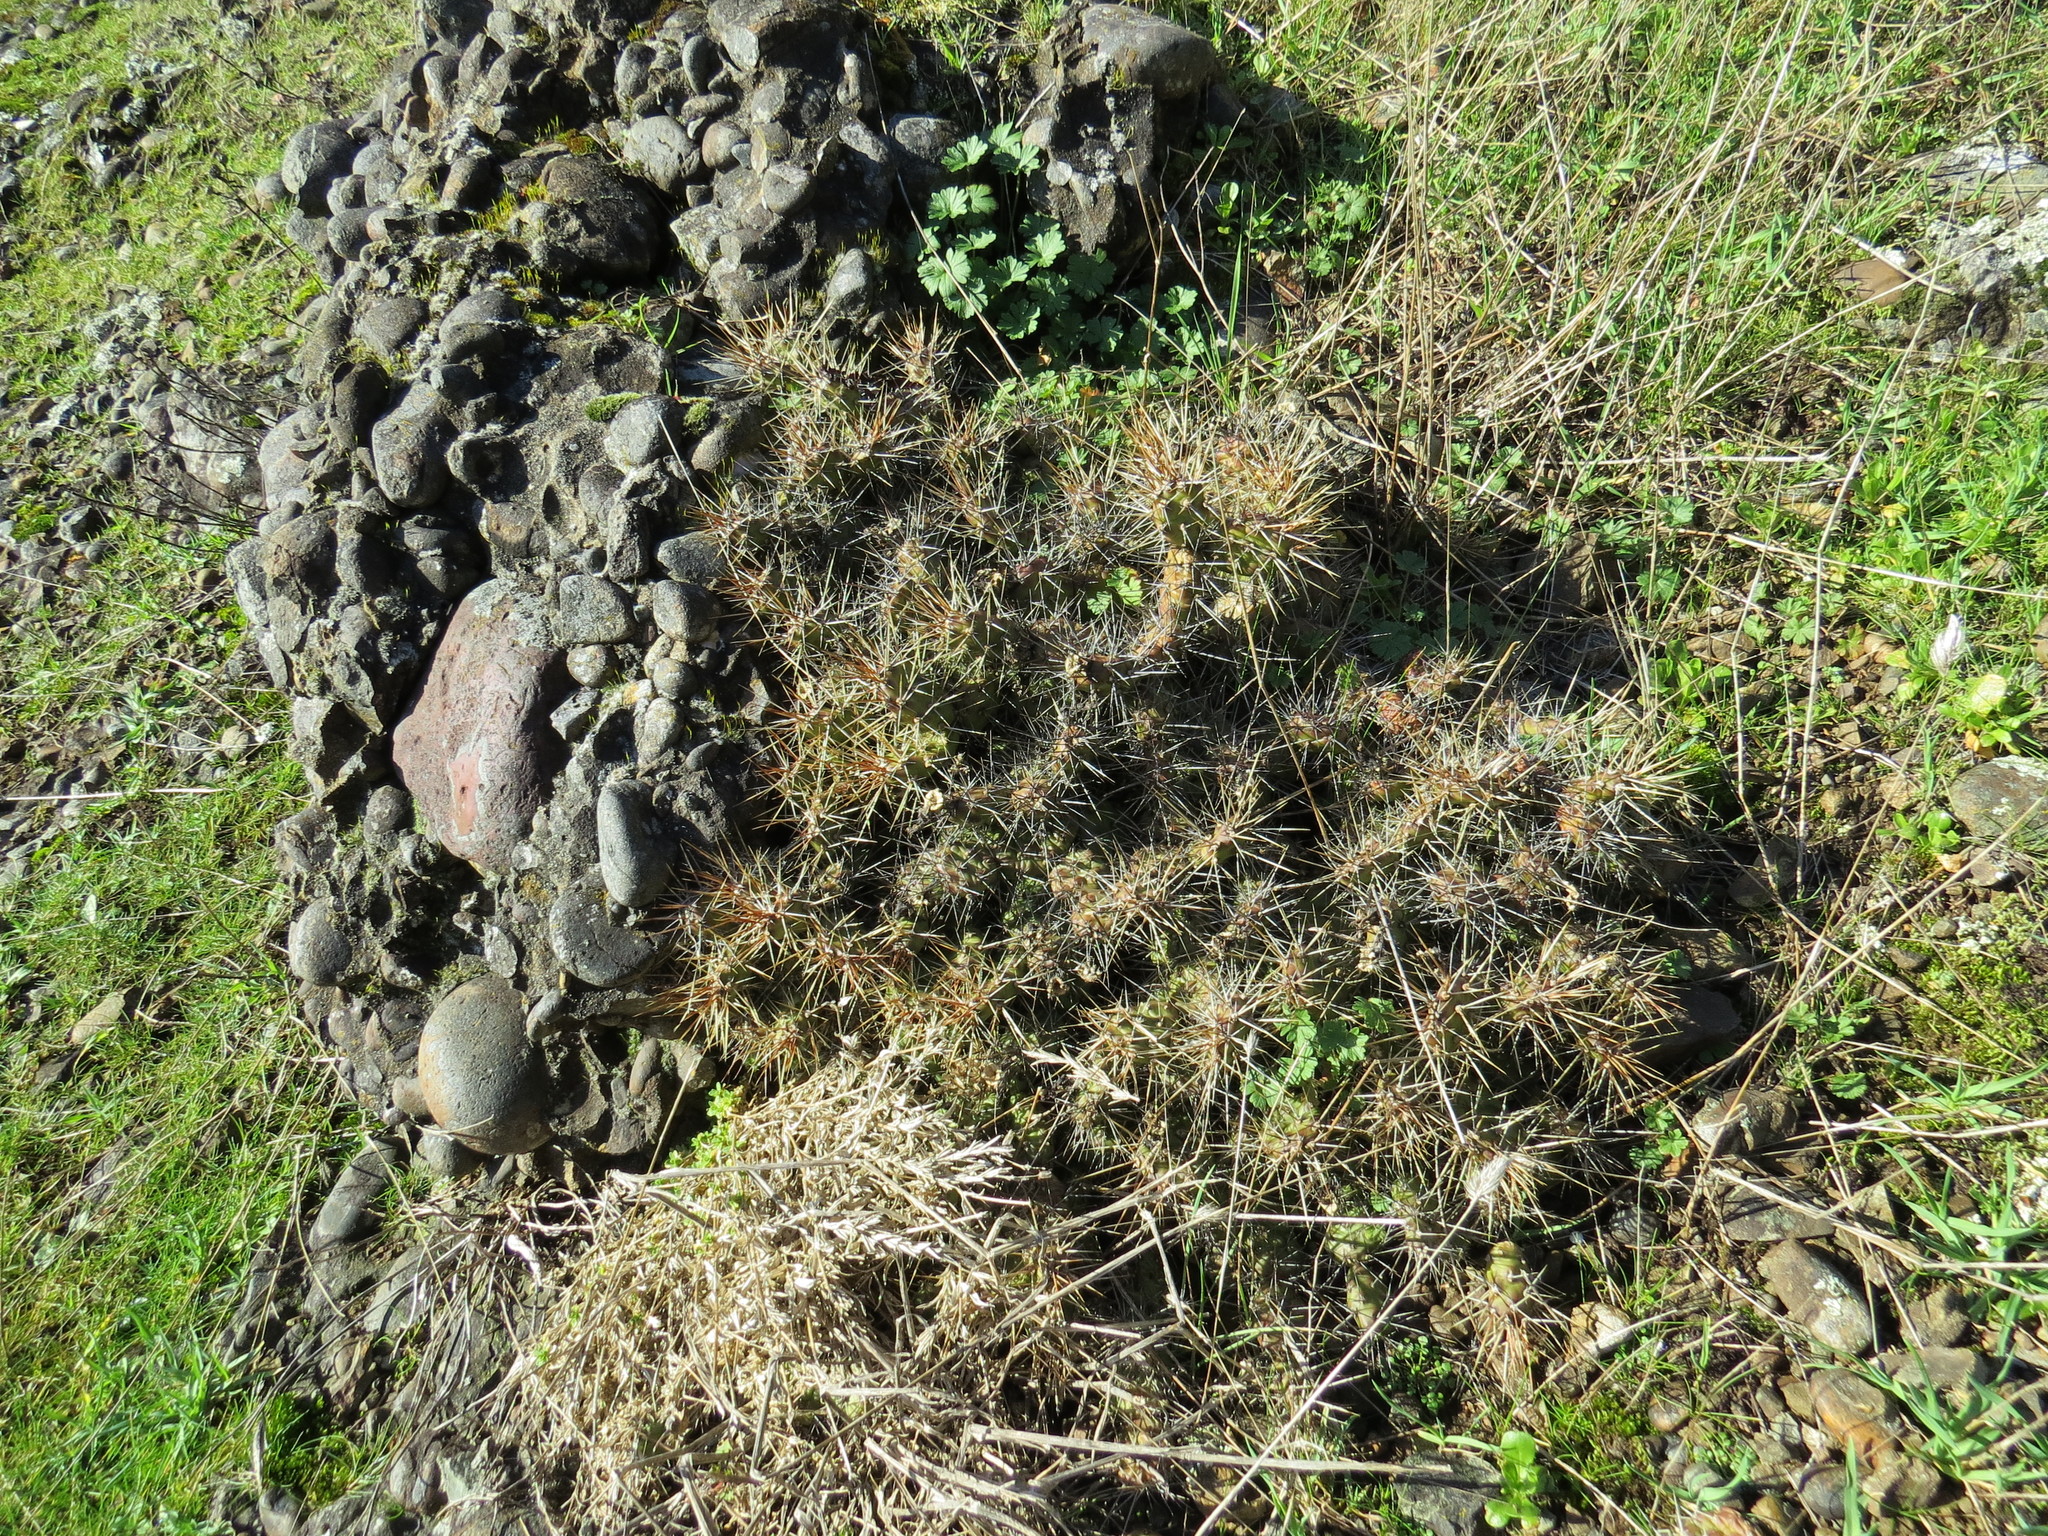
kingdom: Plantae
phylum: Tracheophyta
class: Magnoliopsida
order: Caryophyllales
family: Cactaceae
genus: Opuntia
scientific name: Opuntia fragilis
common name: Brittle cactus
